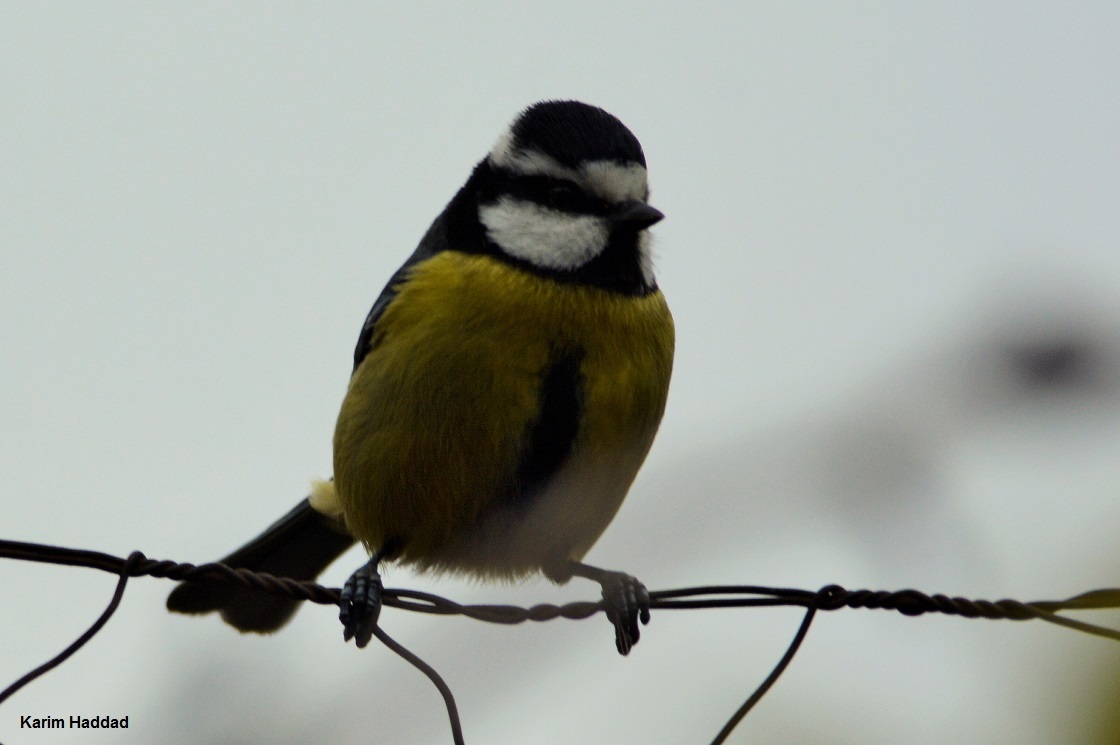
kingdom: Animalia
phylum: Chordata
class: Aves
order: Passeriformes
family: Paridae
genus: Cyanistes
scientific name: Cyanistes teneriffae
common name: African blue tit
